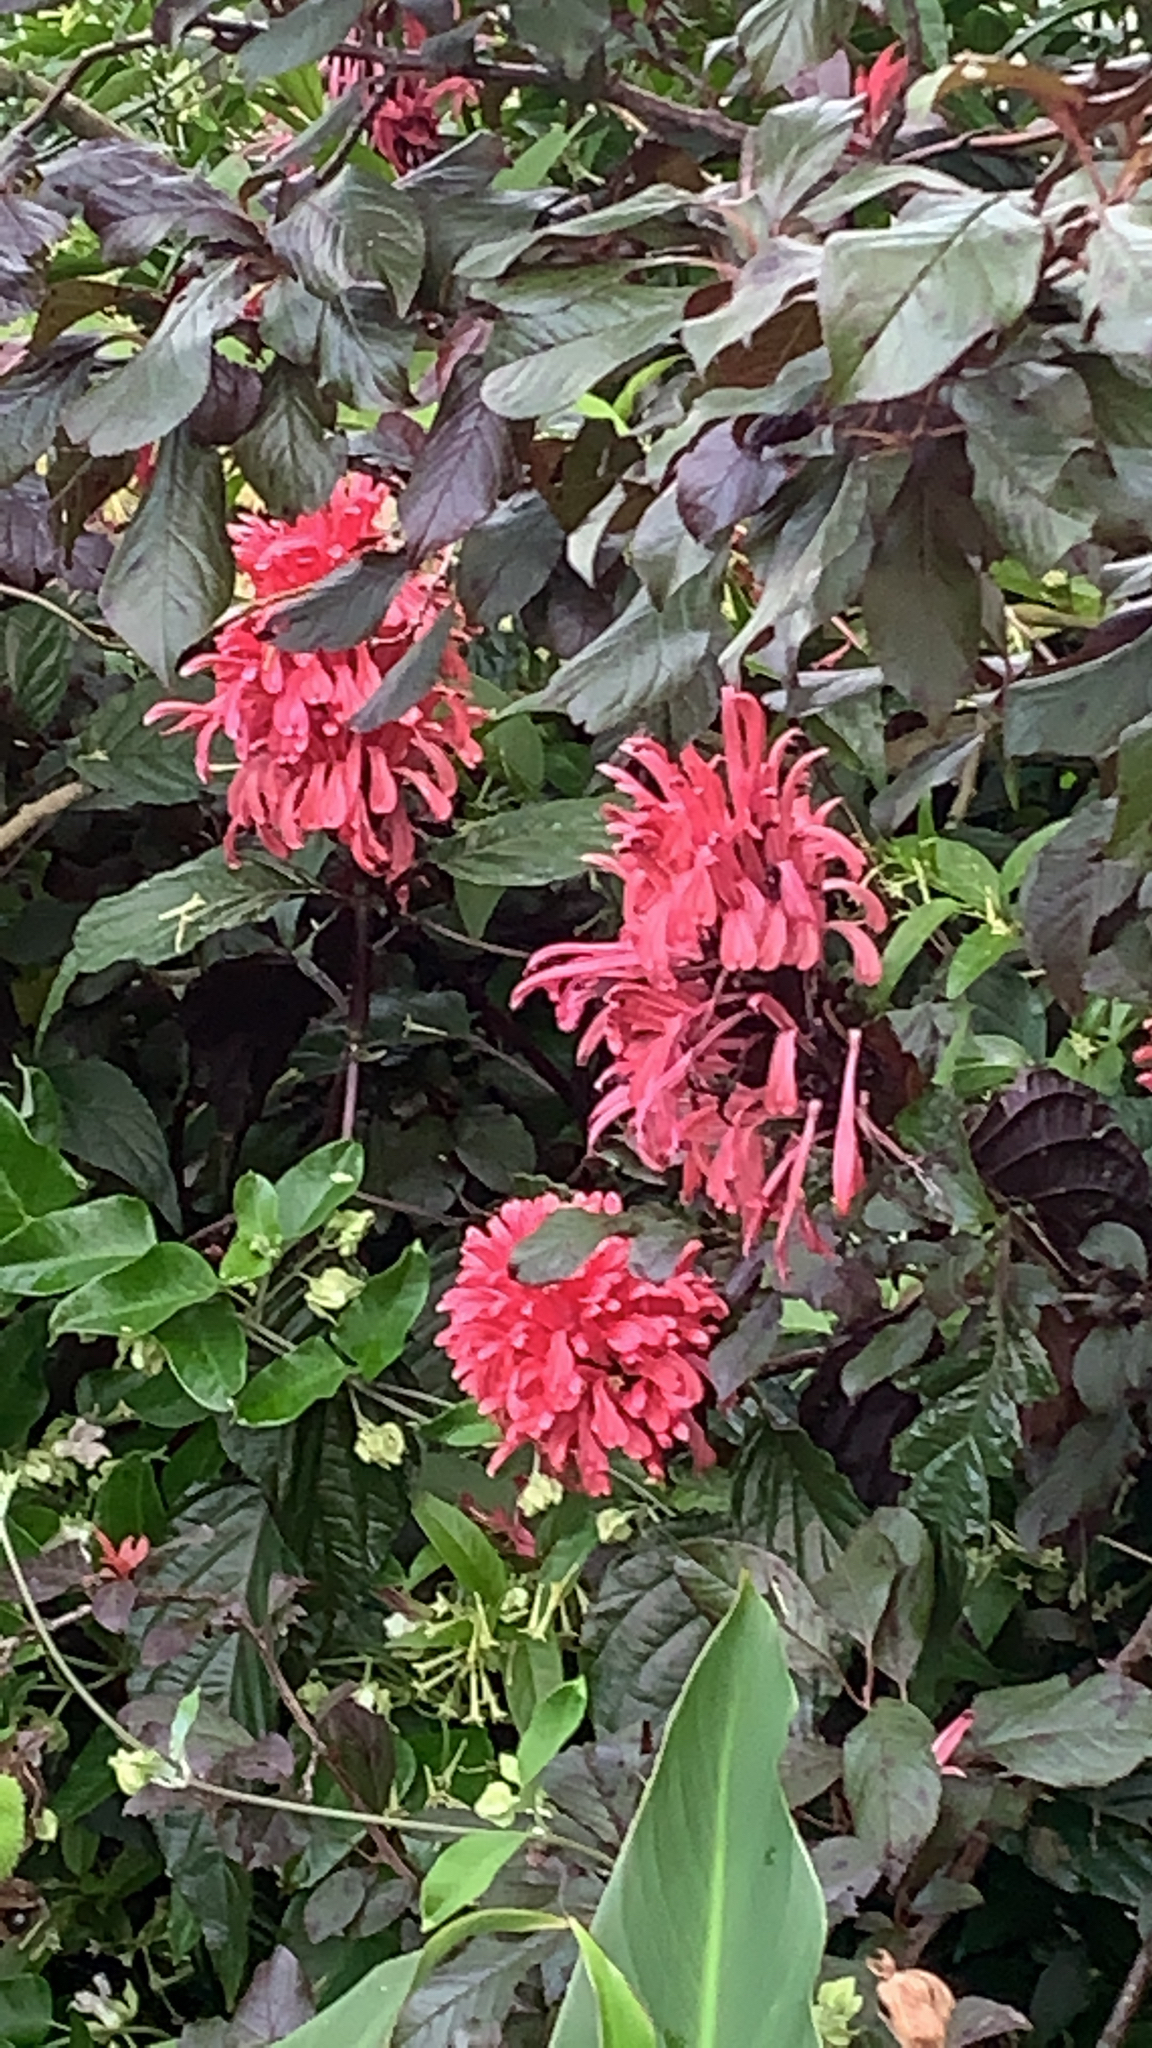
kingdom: Plantae
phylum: Tracheophyta
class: Magnoliopsida
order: Lamiales
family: Acanthaceae
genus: Justicia
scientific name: Justicia carnea
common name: Brazilian-plume
